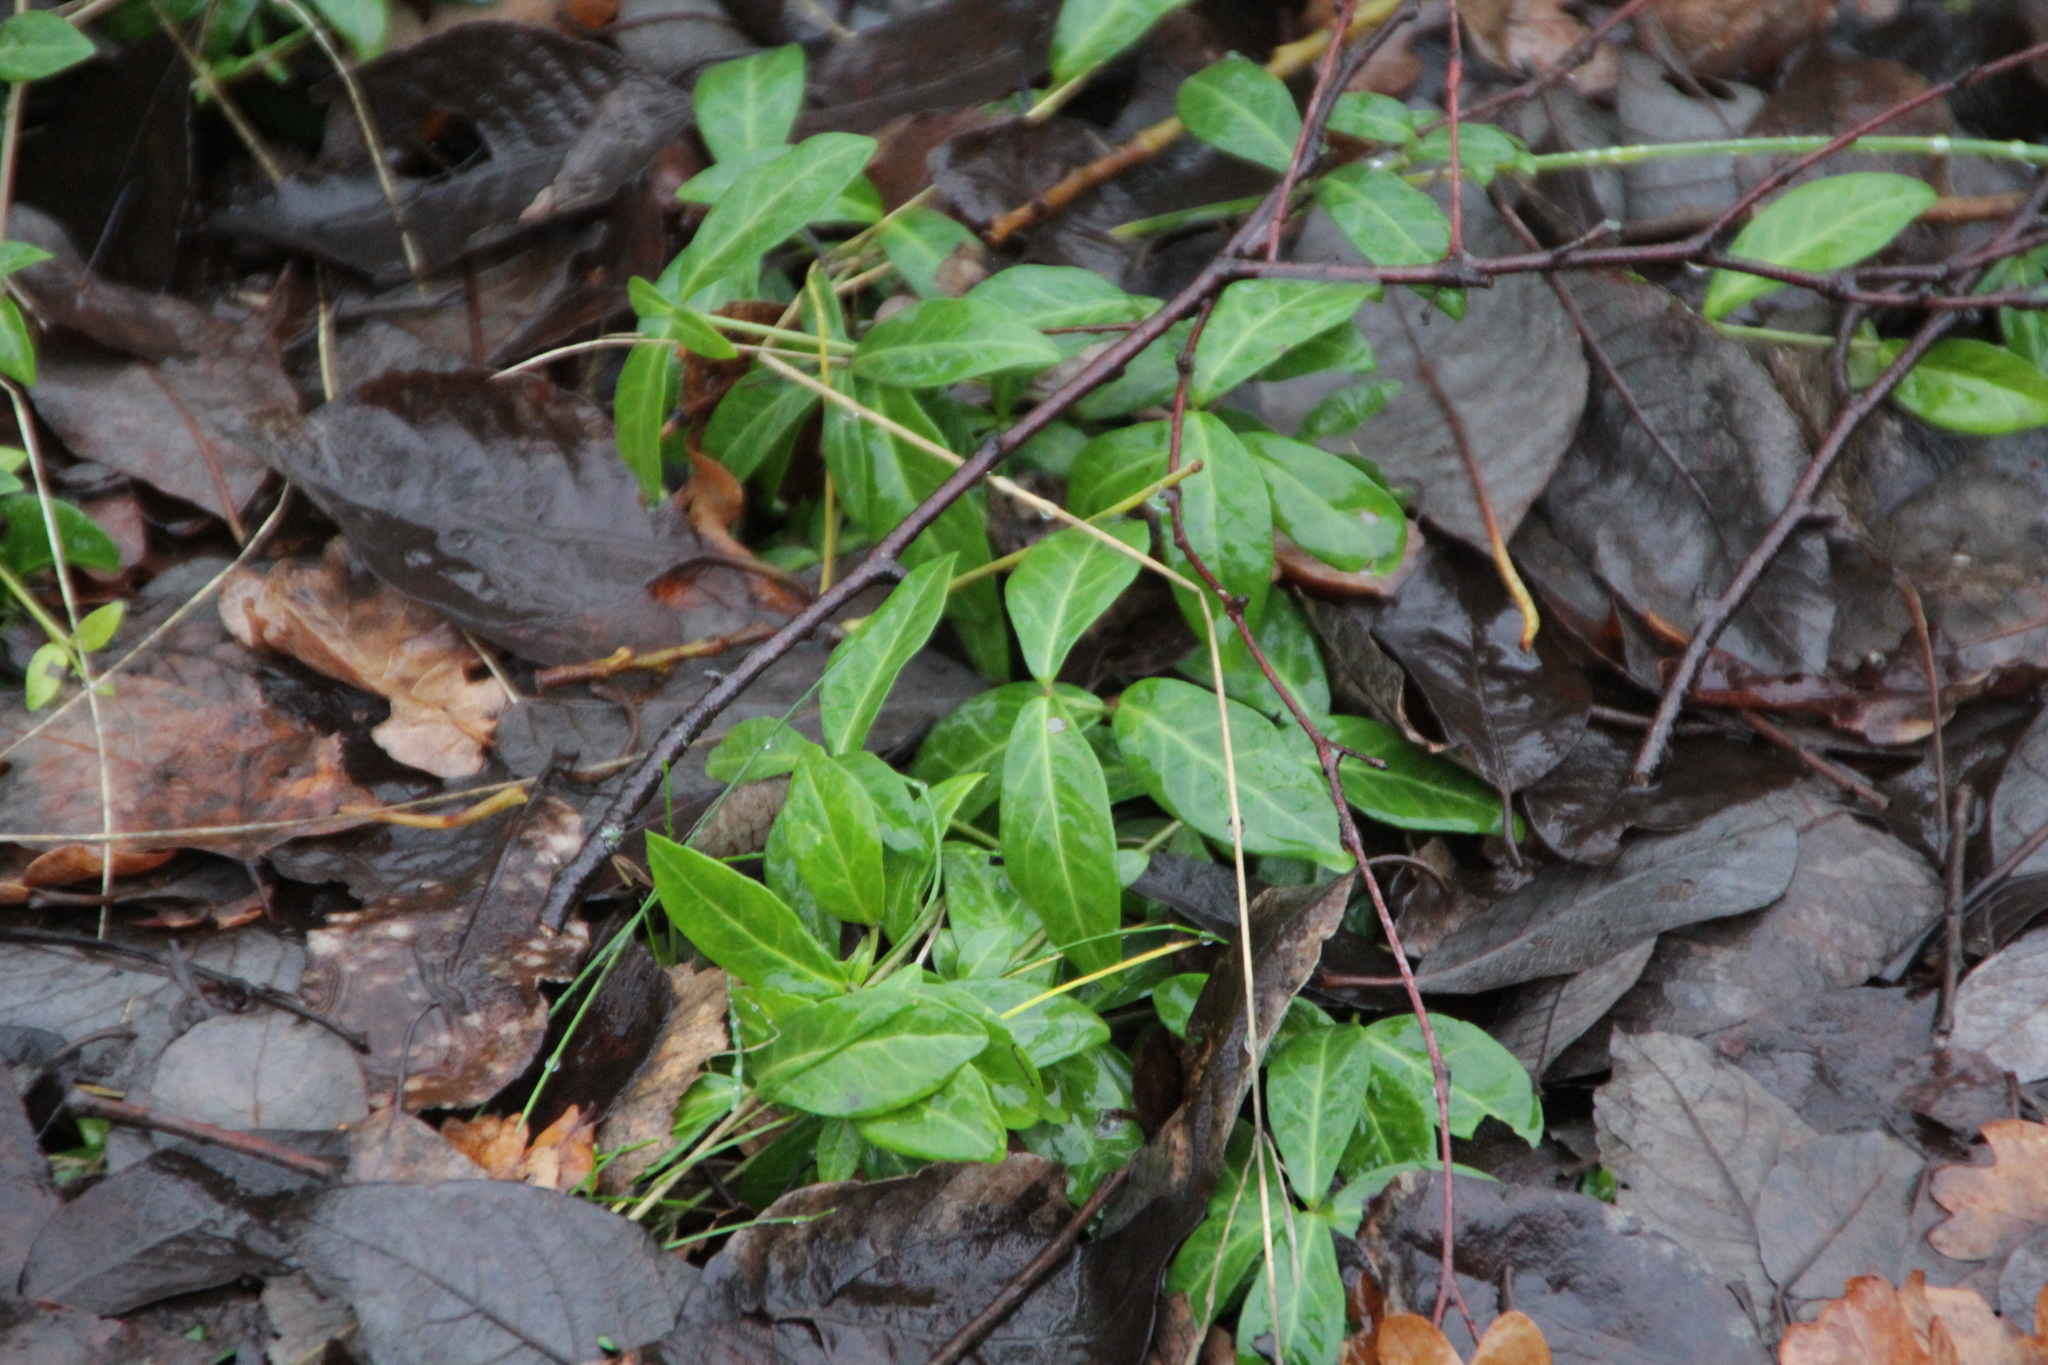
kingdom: Plantae
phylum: Tracheophyta
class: Magnoliopsida
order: Gentianales
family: Apocynaceae
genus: Vinca
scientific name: Vinca minor
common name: Lesser periwinkle
